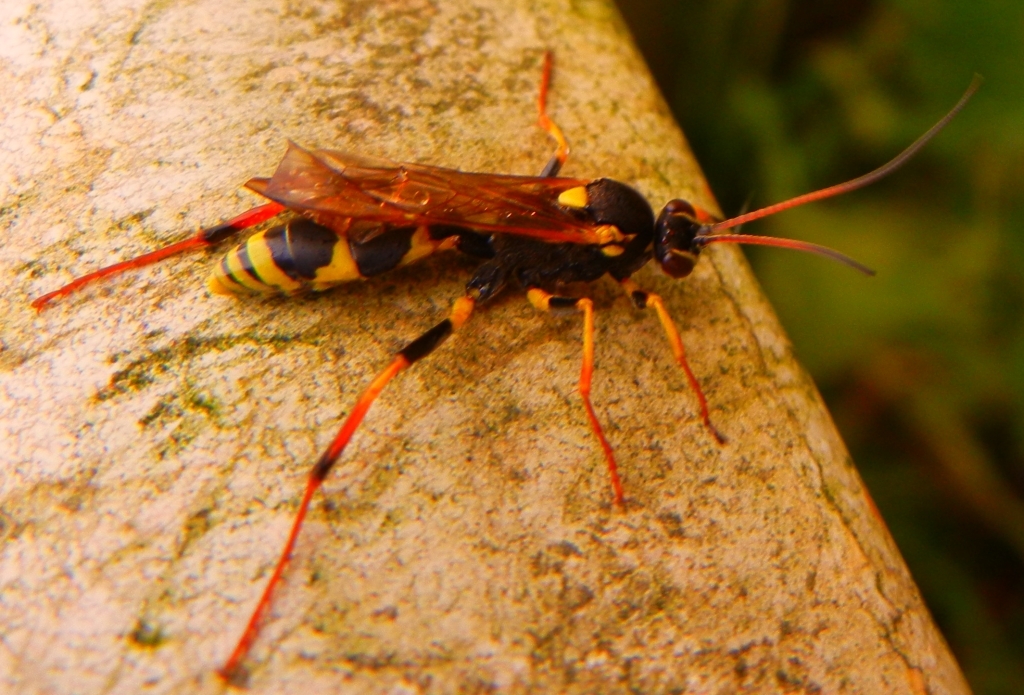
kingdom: Animalia
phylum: Arthropoda
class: Insecta
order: Hymenoptera
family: Ichneumonidae
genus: Amblyteles
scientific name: Amblyteles armatorius
